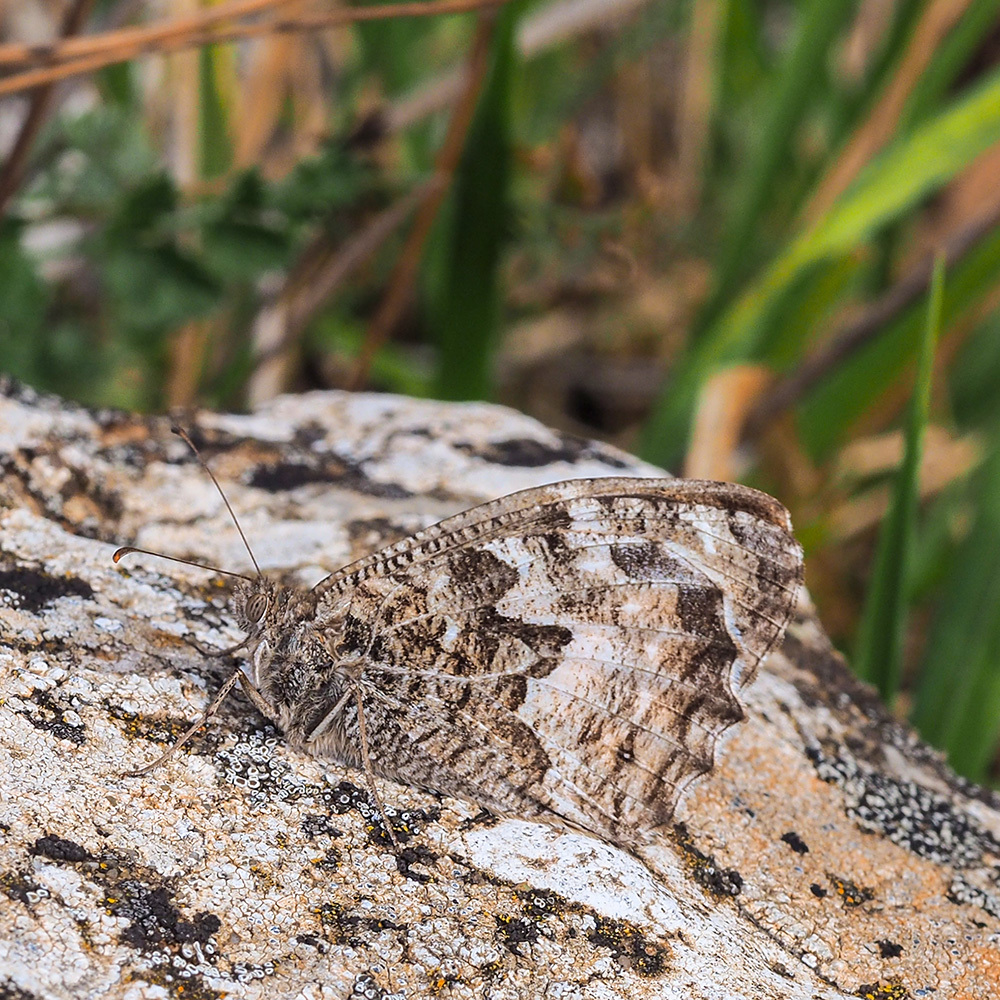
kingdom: Animalia
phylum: Arthropoda
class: Insecta
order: Lepidoptera
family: Nymphalidae
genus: Hipparchia
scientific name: Hipparchia semele
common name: Grayling
